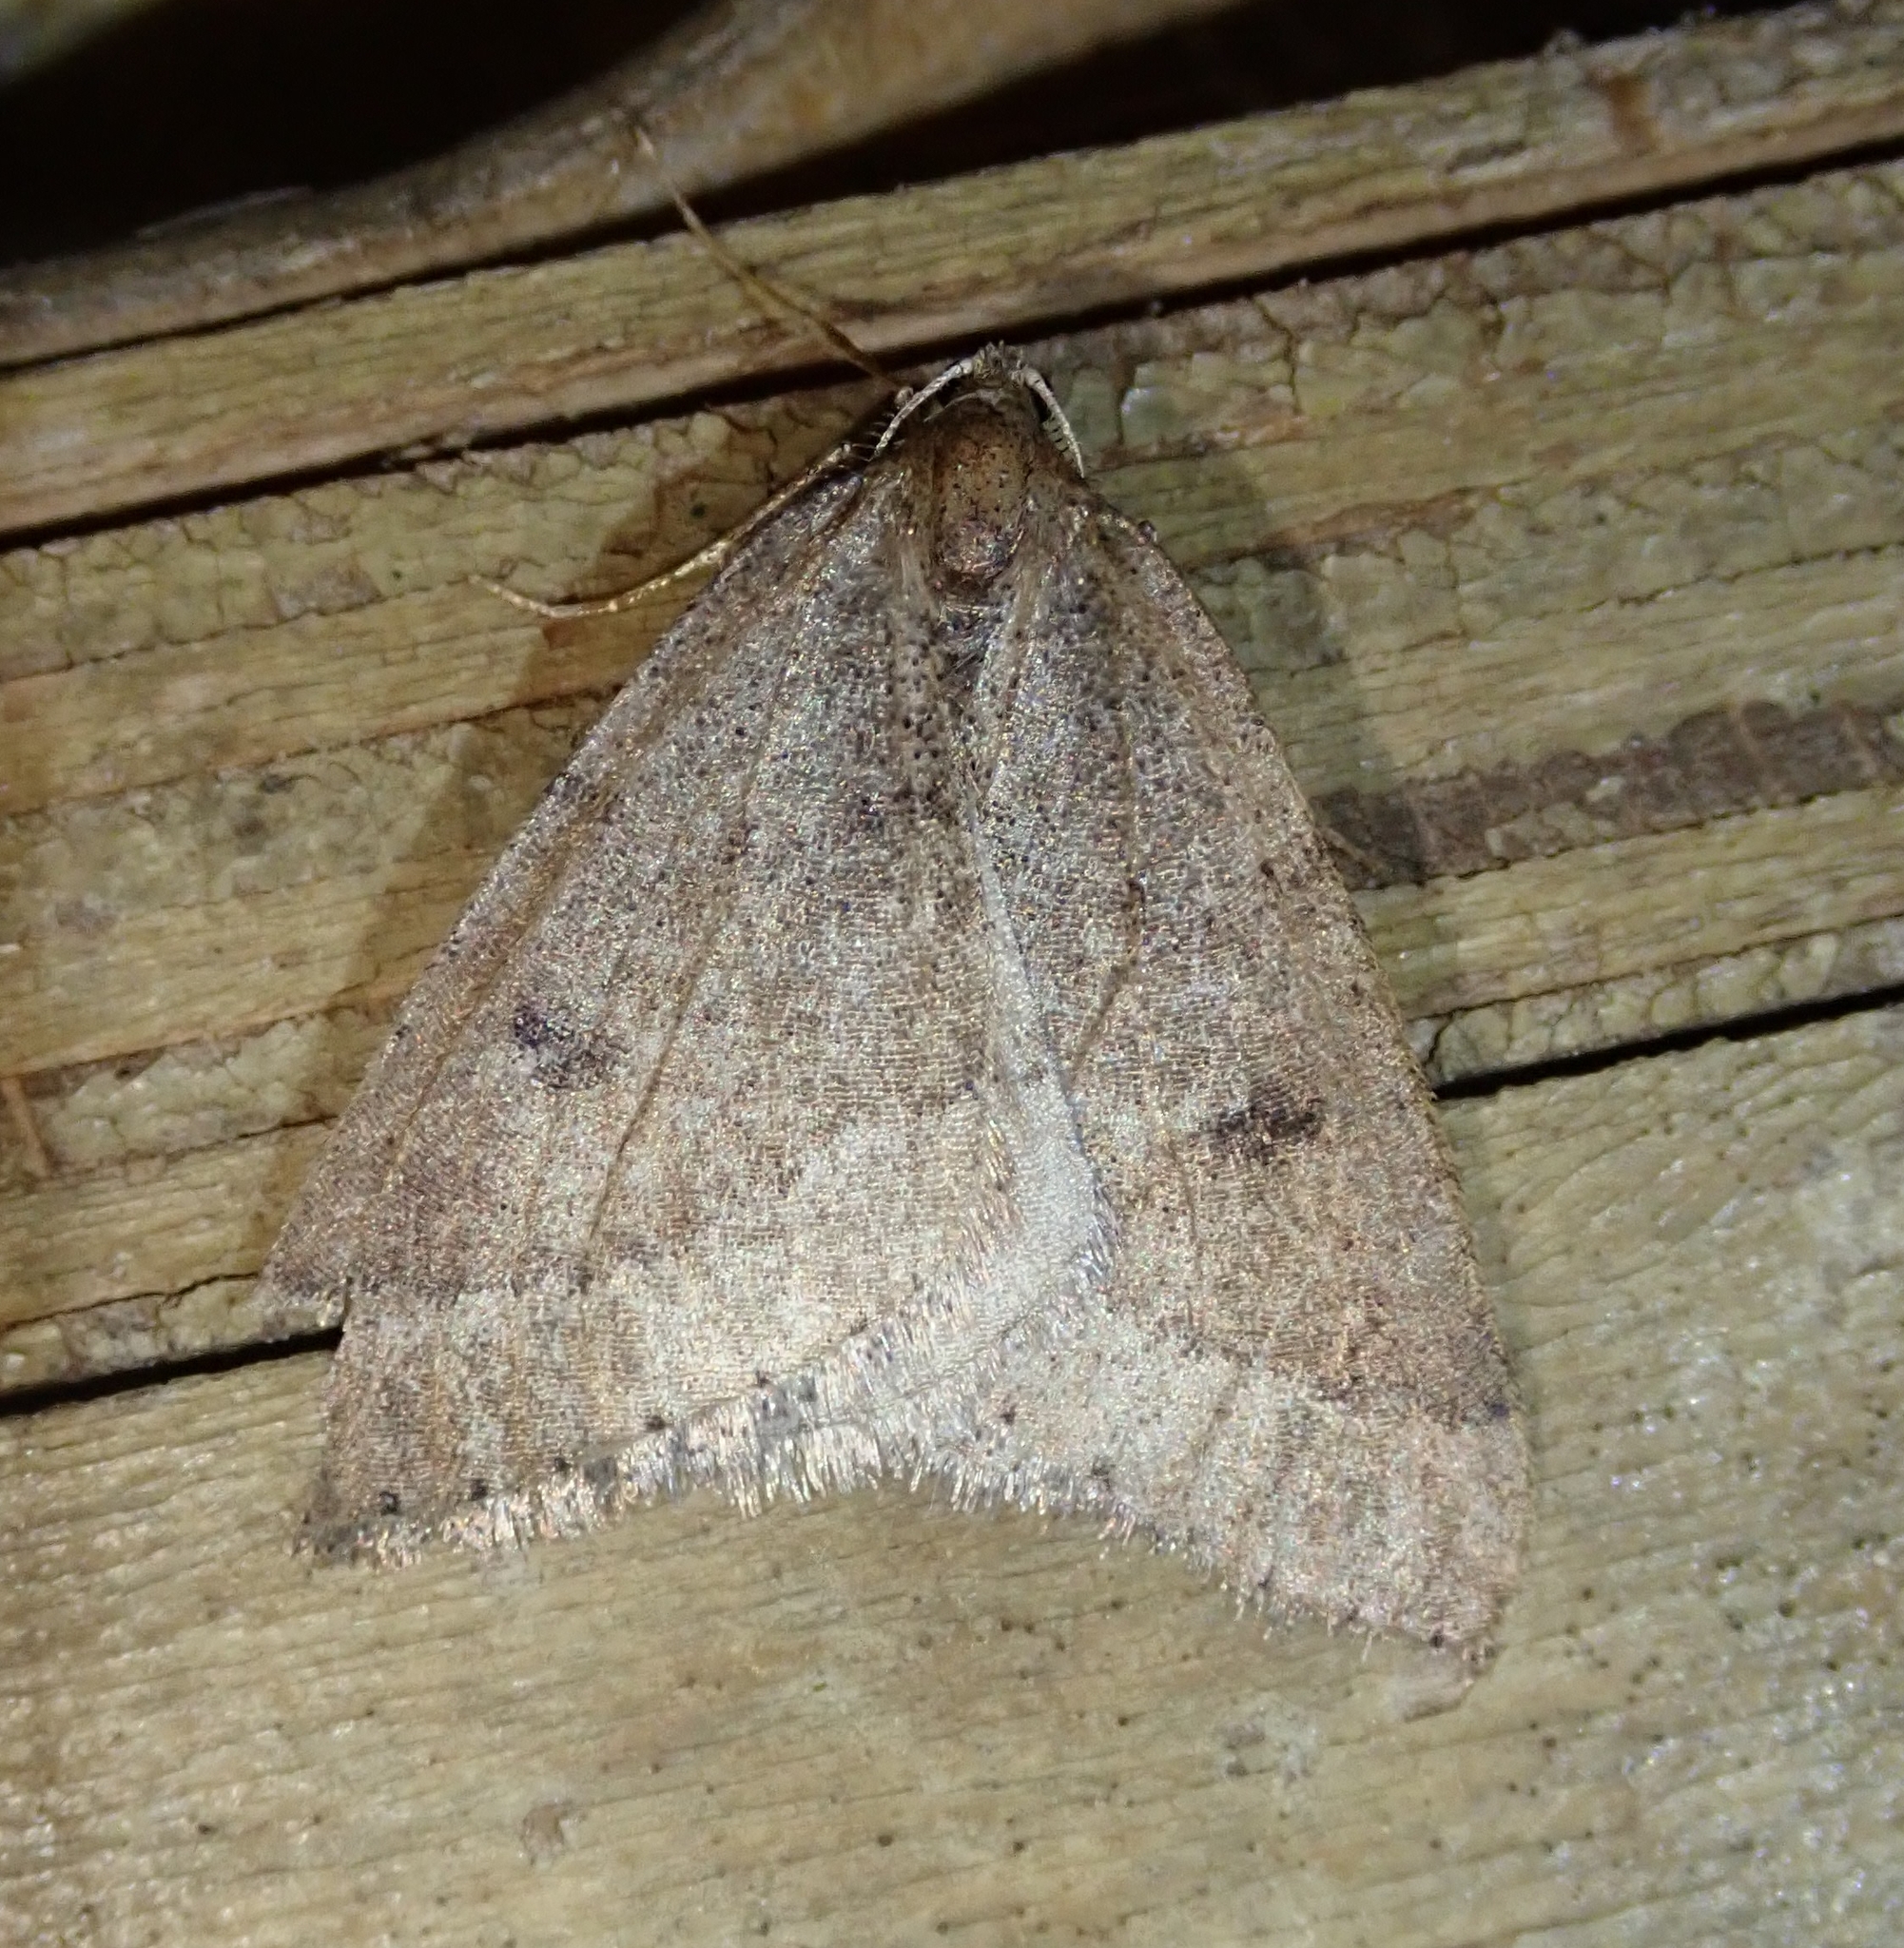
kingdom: Animalia
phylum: Arthropoda
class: Insecta
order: Lepidoptera
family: Geometridae
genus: Theria
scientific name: Theria primaria
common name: Early moth
